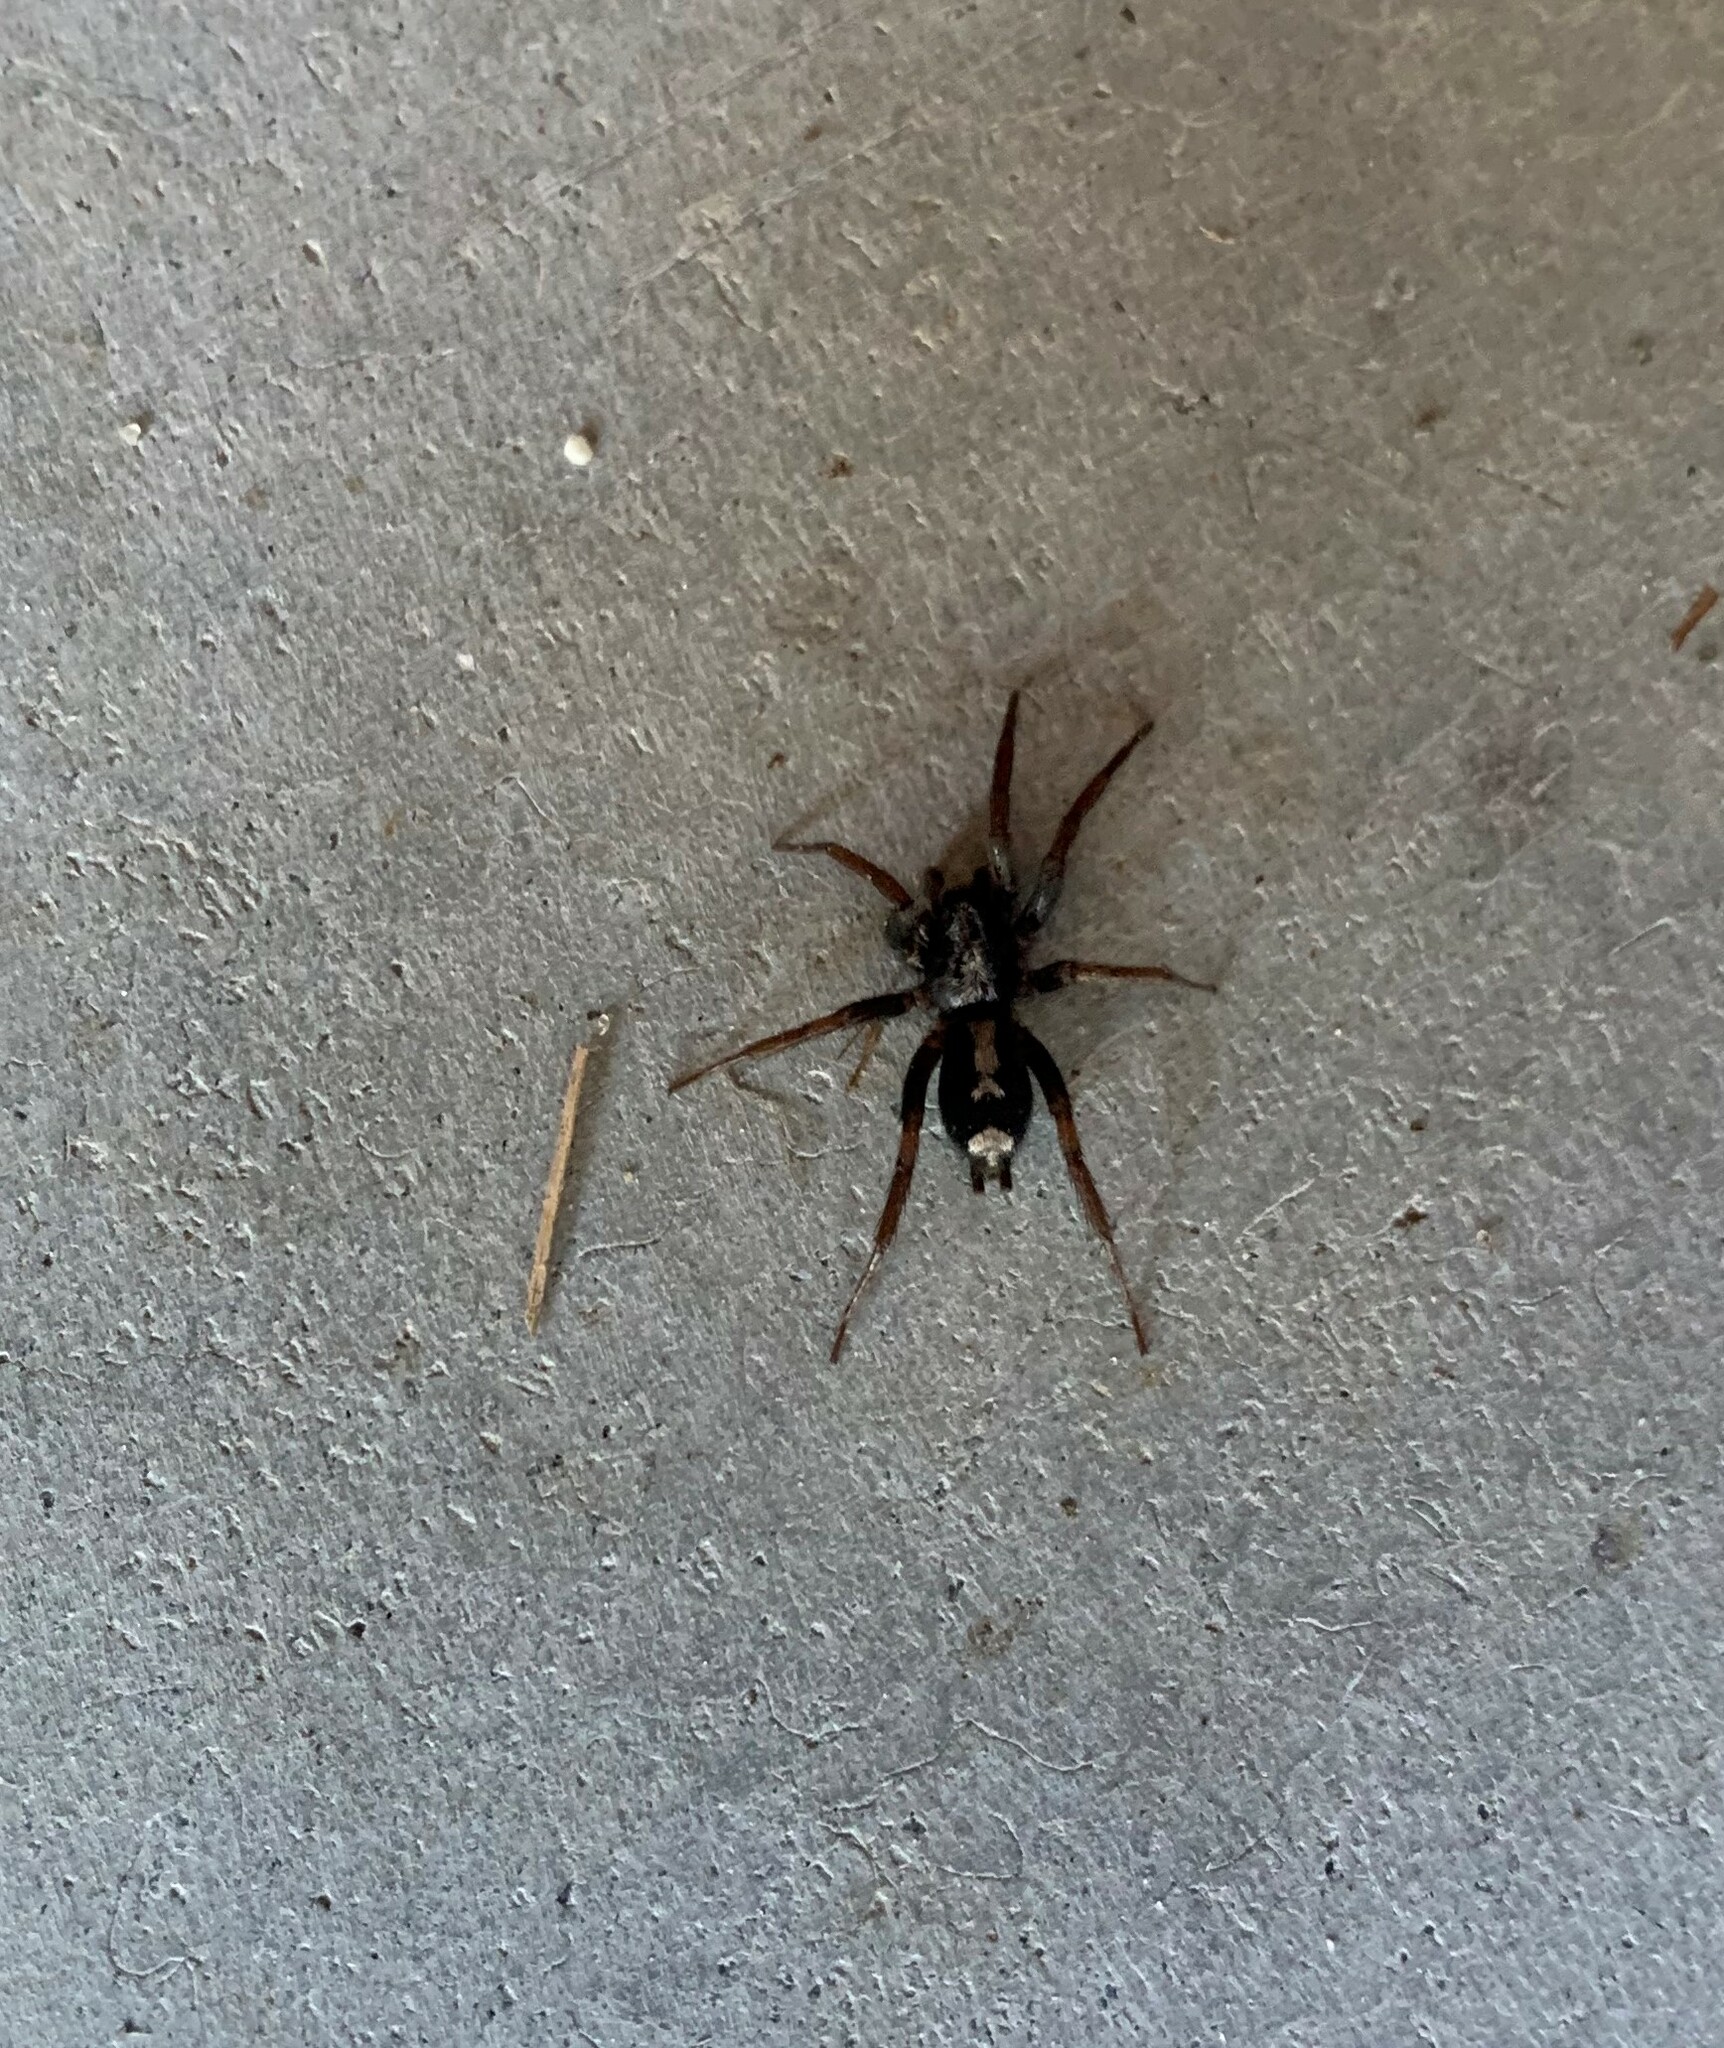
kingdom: Animalia
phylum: Arthropoda
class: Arachnida
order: Araneae
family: Gnaphosidae
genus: Herpyllus
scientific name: Herpyllus ecclesiasticus
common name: Eastern parson spider
